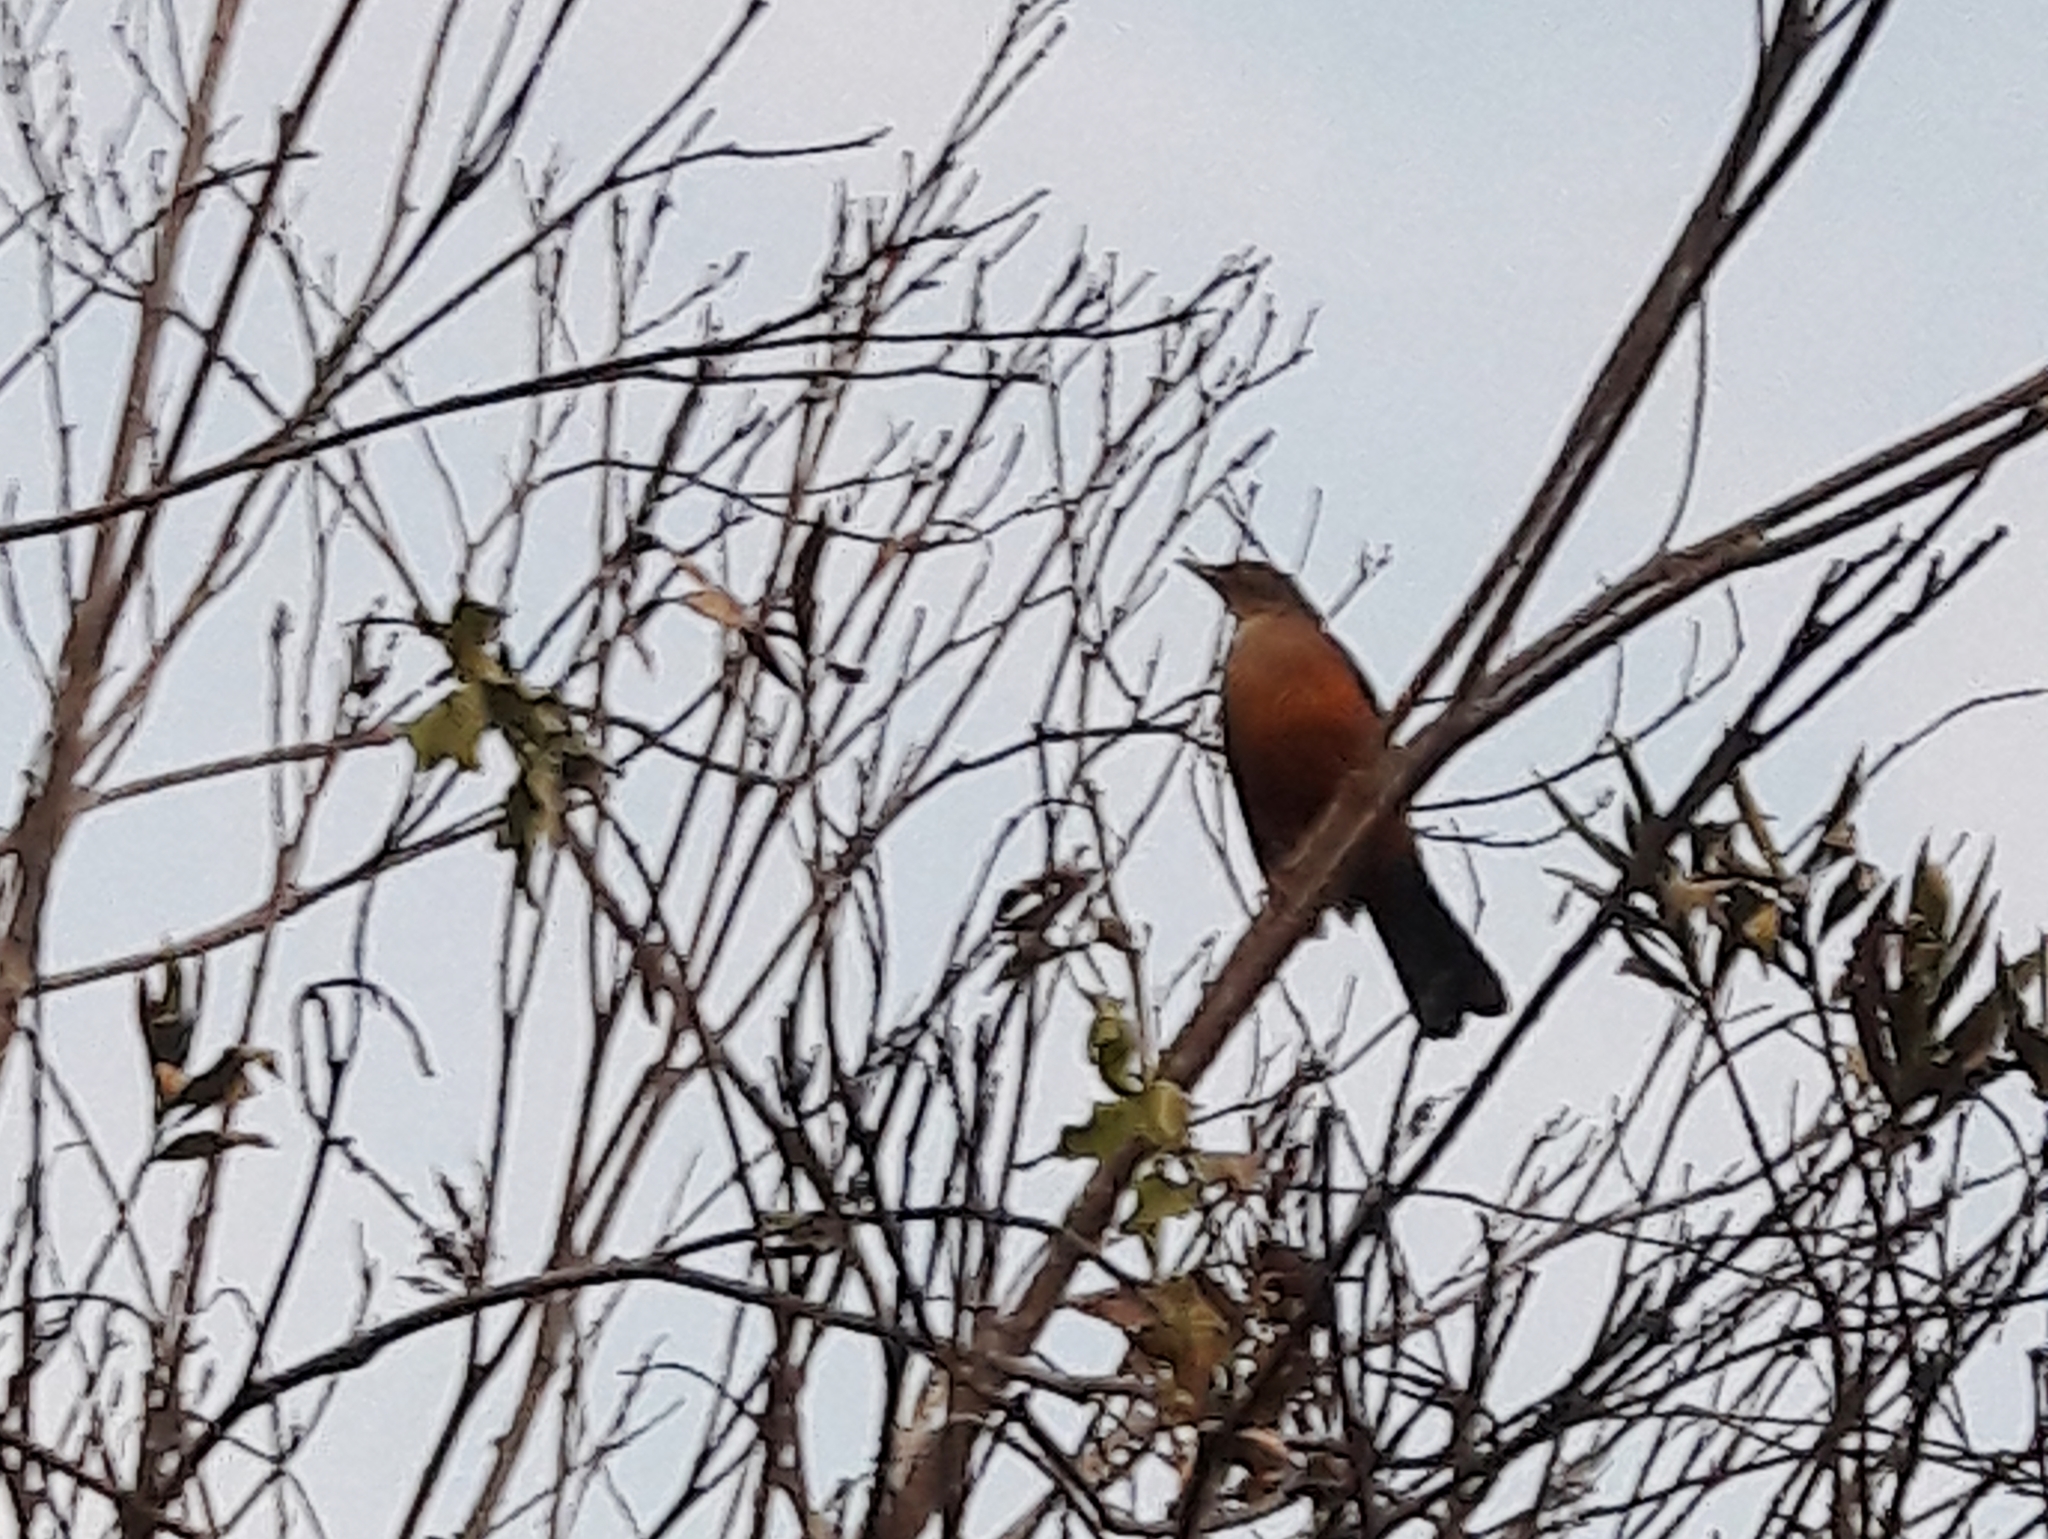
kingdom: Animalia
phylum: Chordata
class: Aves
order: Passeriformes
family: Turdidae
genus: Turdus
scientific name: Turdus rufiventris
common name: Rufous-bellied thrush
